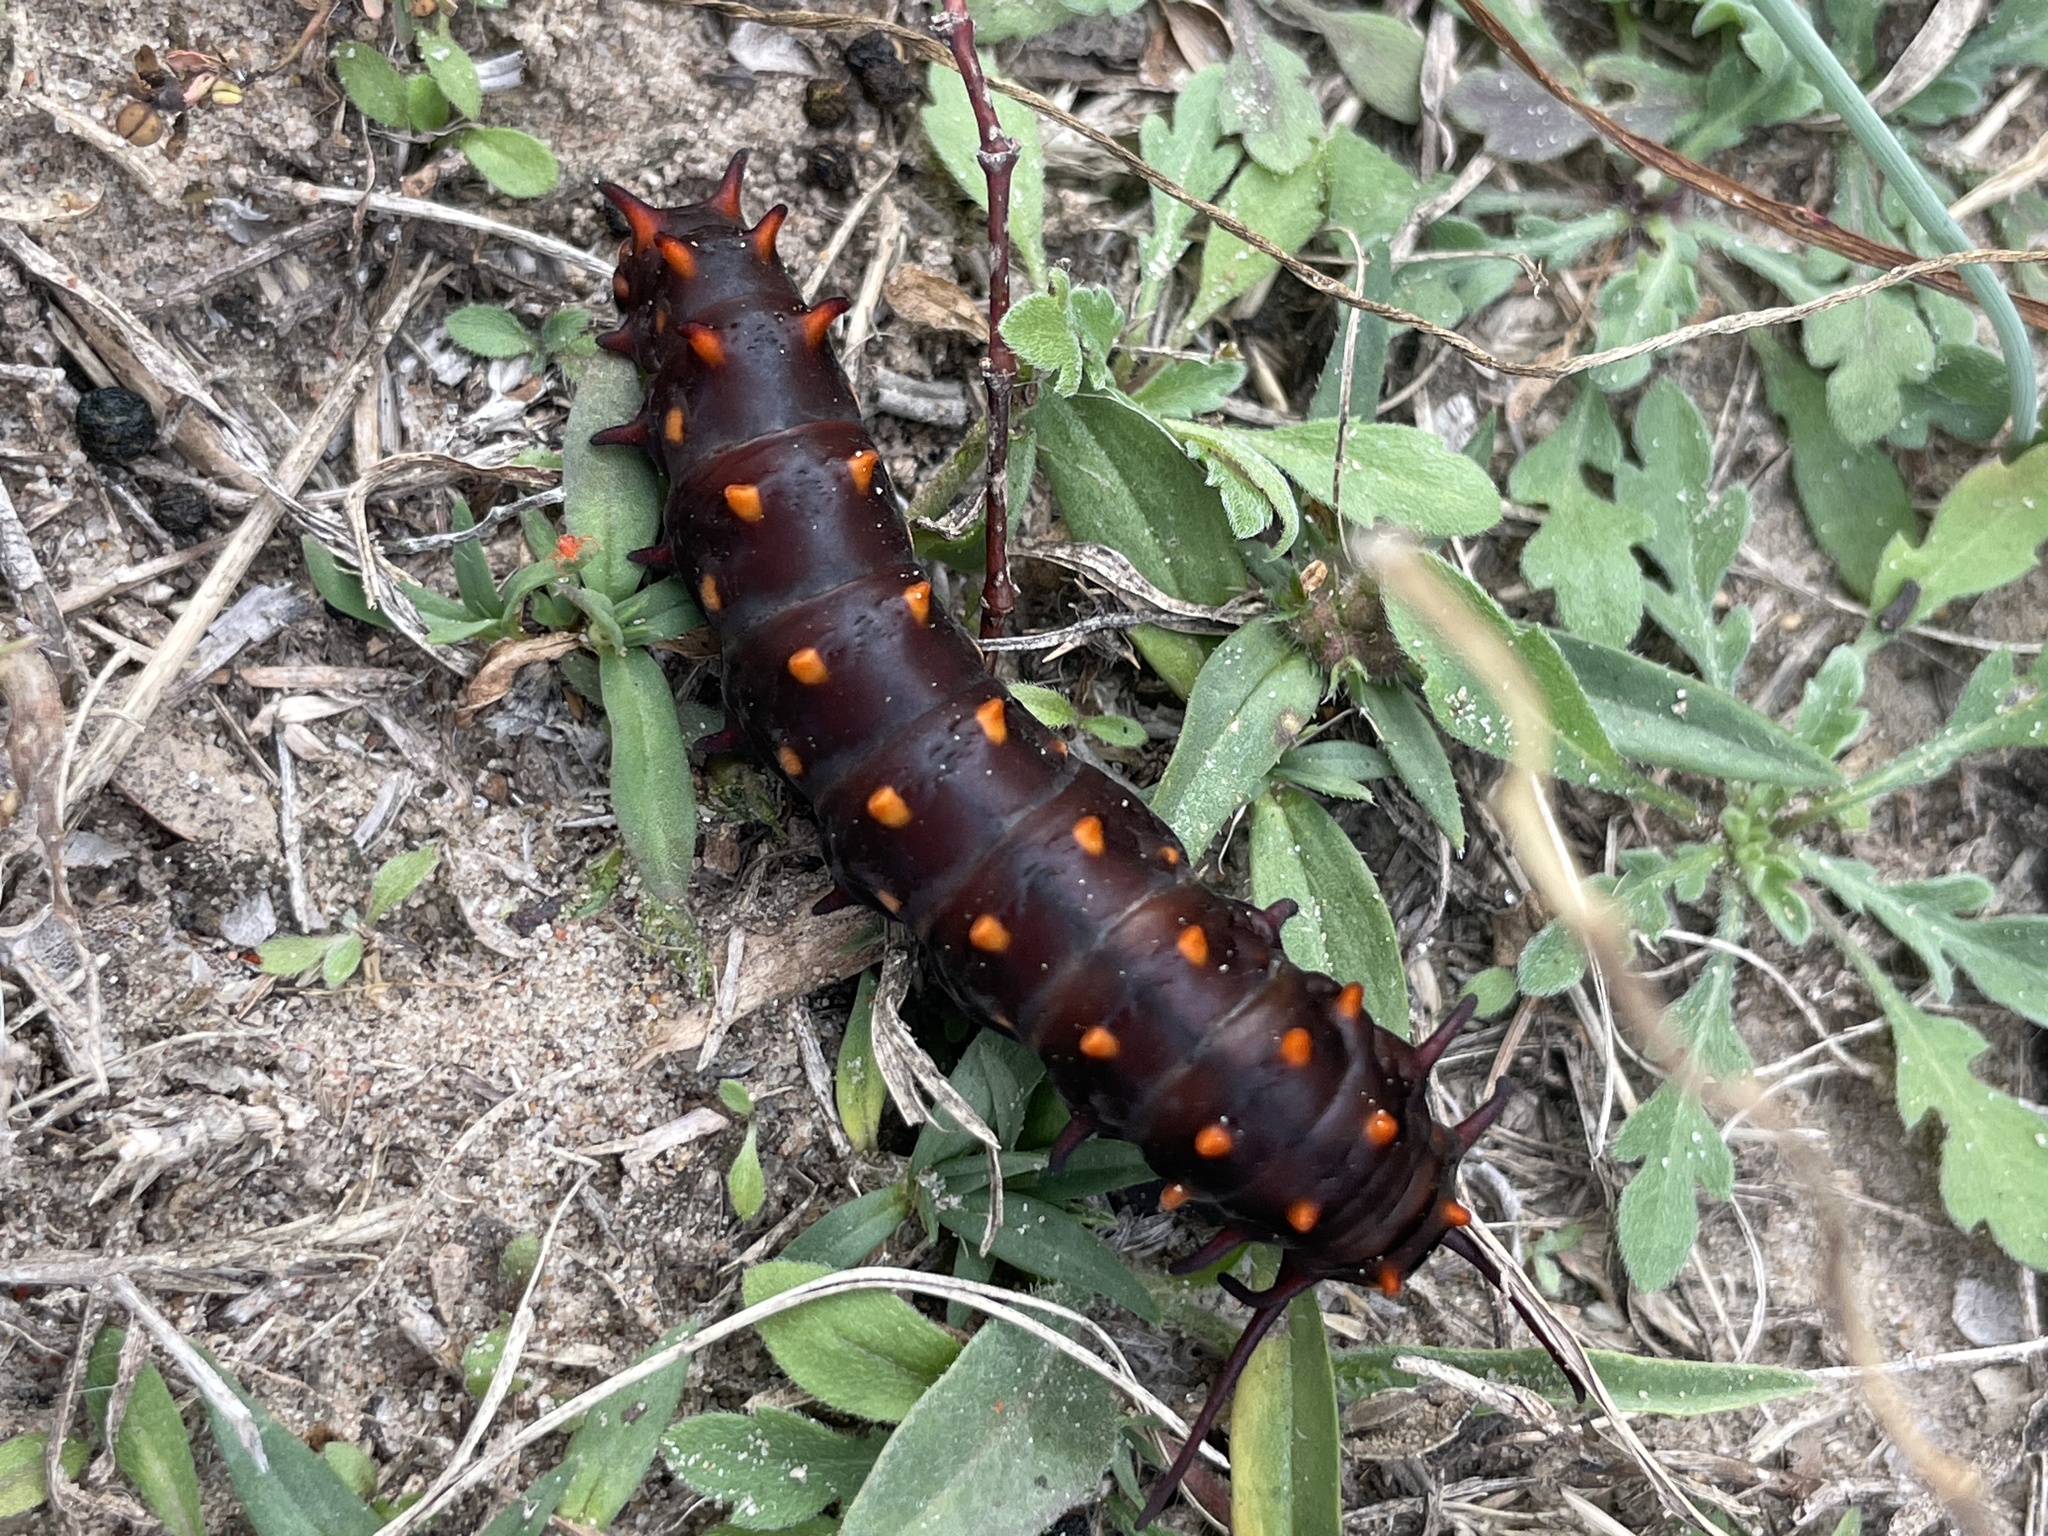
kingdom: Animalia
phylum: Arthropoda
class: Insecta
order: Lepidoptera
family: Papilionidae
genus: Battus
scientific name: Battus philenor
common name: Pipevine swallowtail
